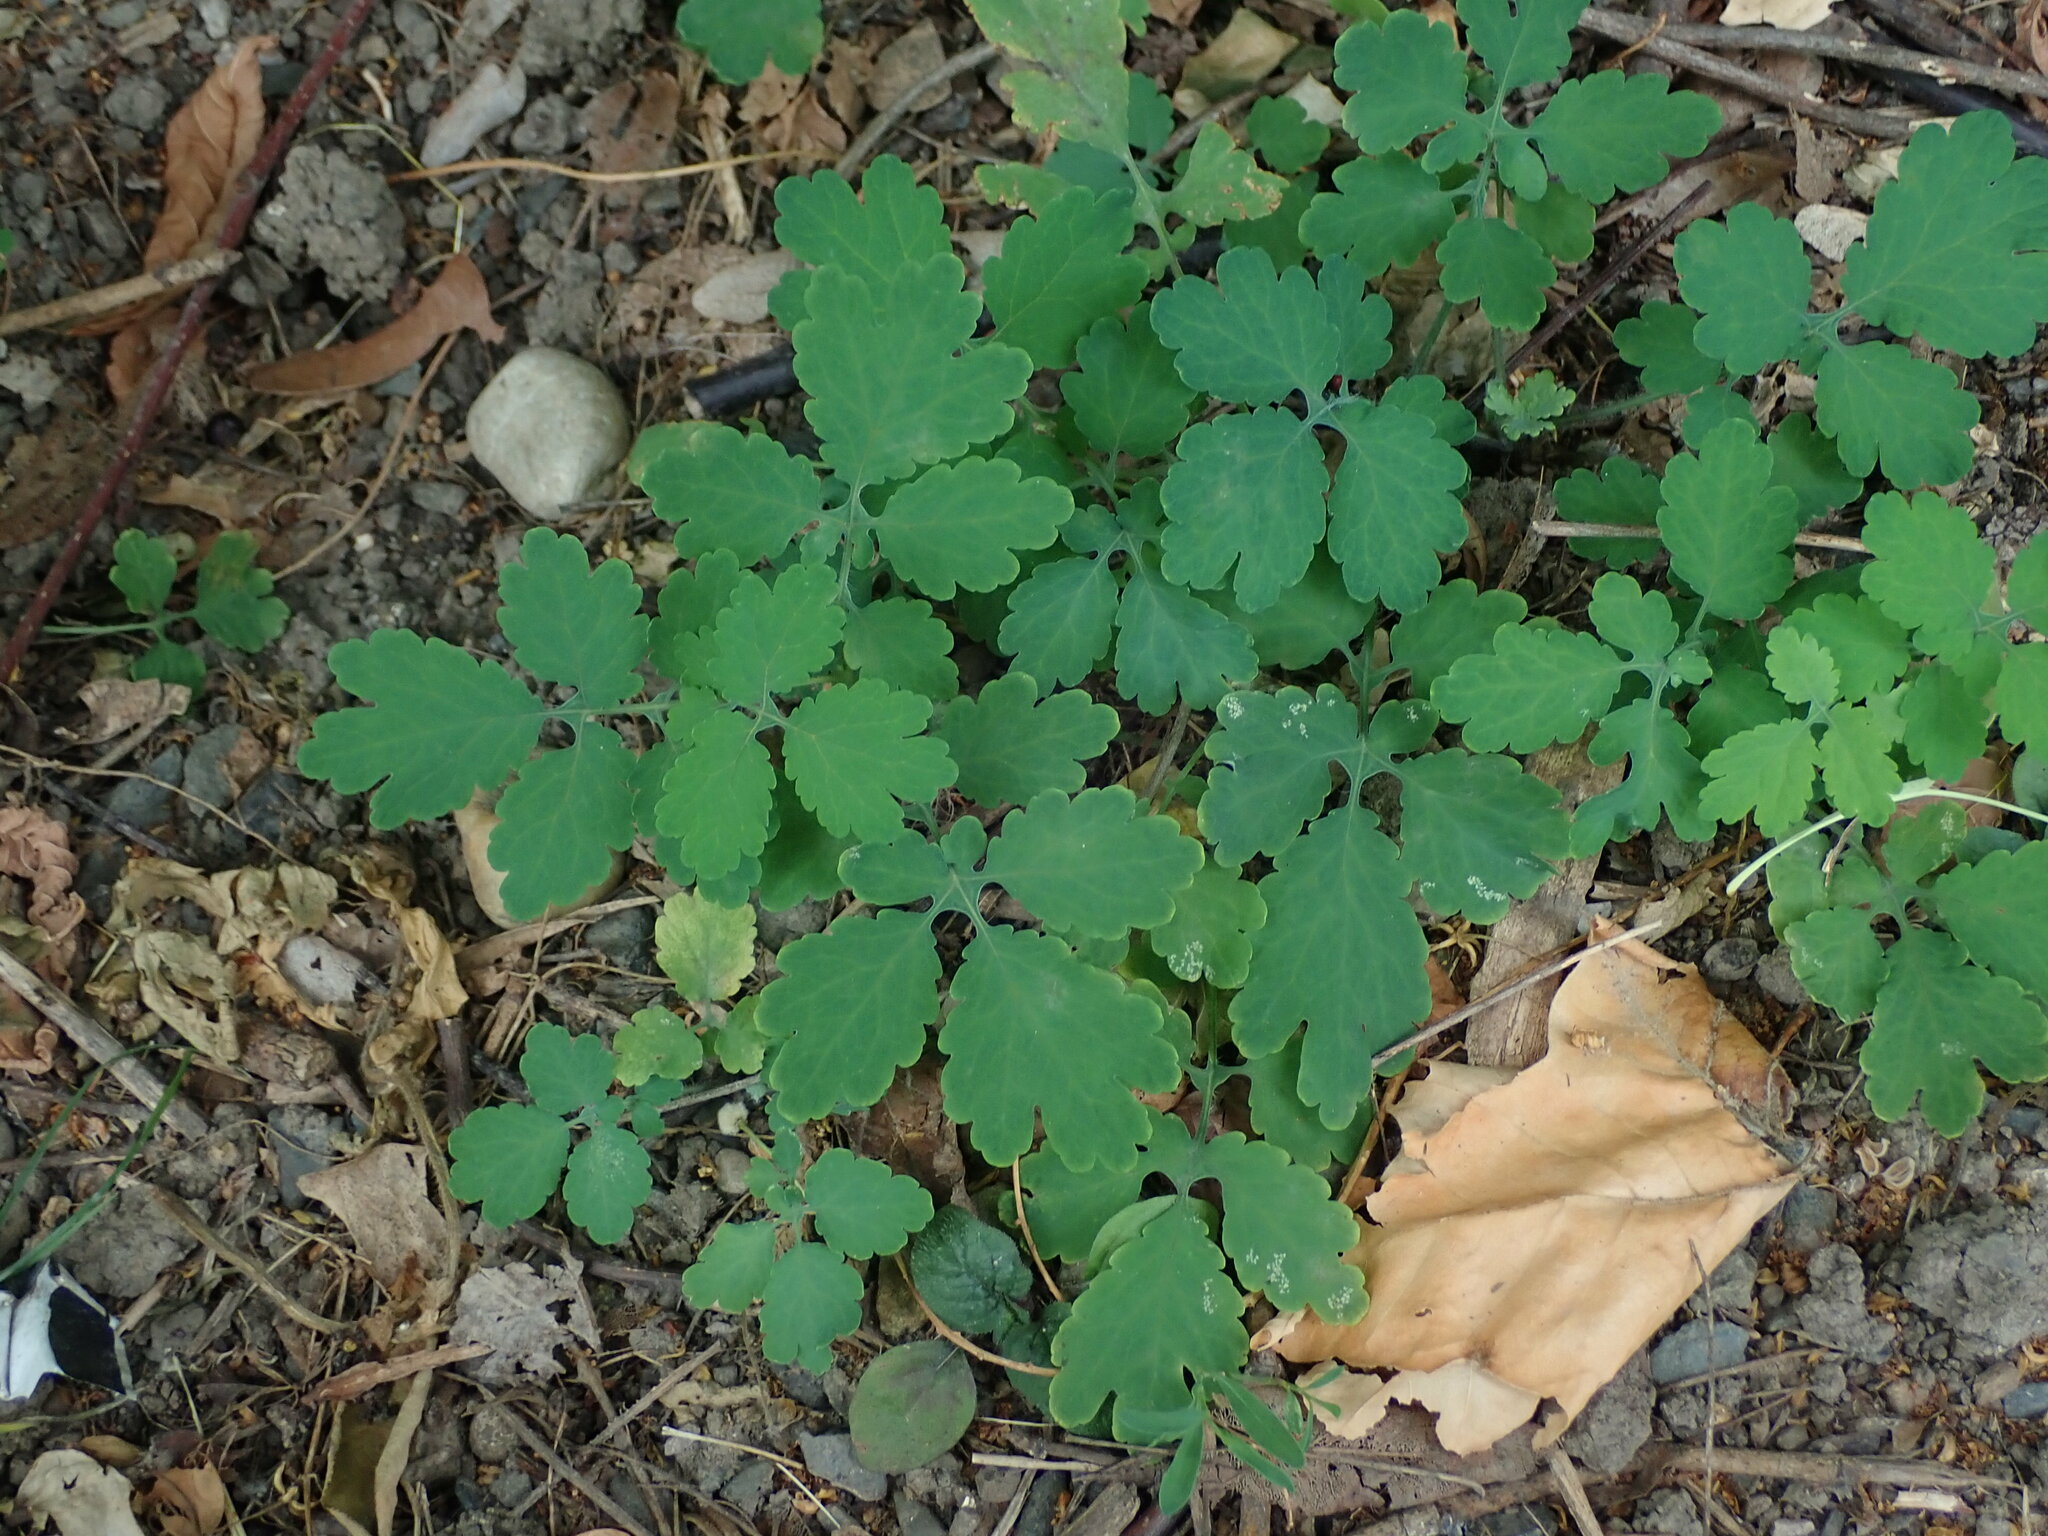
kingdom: Plantae
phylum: Tracheophyta
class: Magnoliopsida
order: Ranunculales
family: Papaveraceae
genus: Chelidonium
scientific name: Chelidonium majus
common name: Greater celandine
